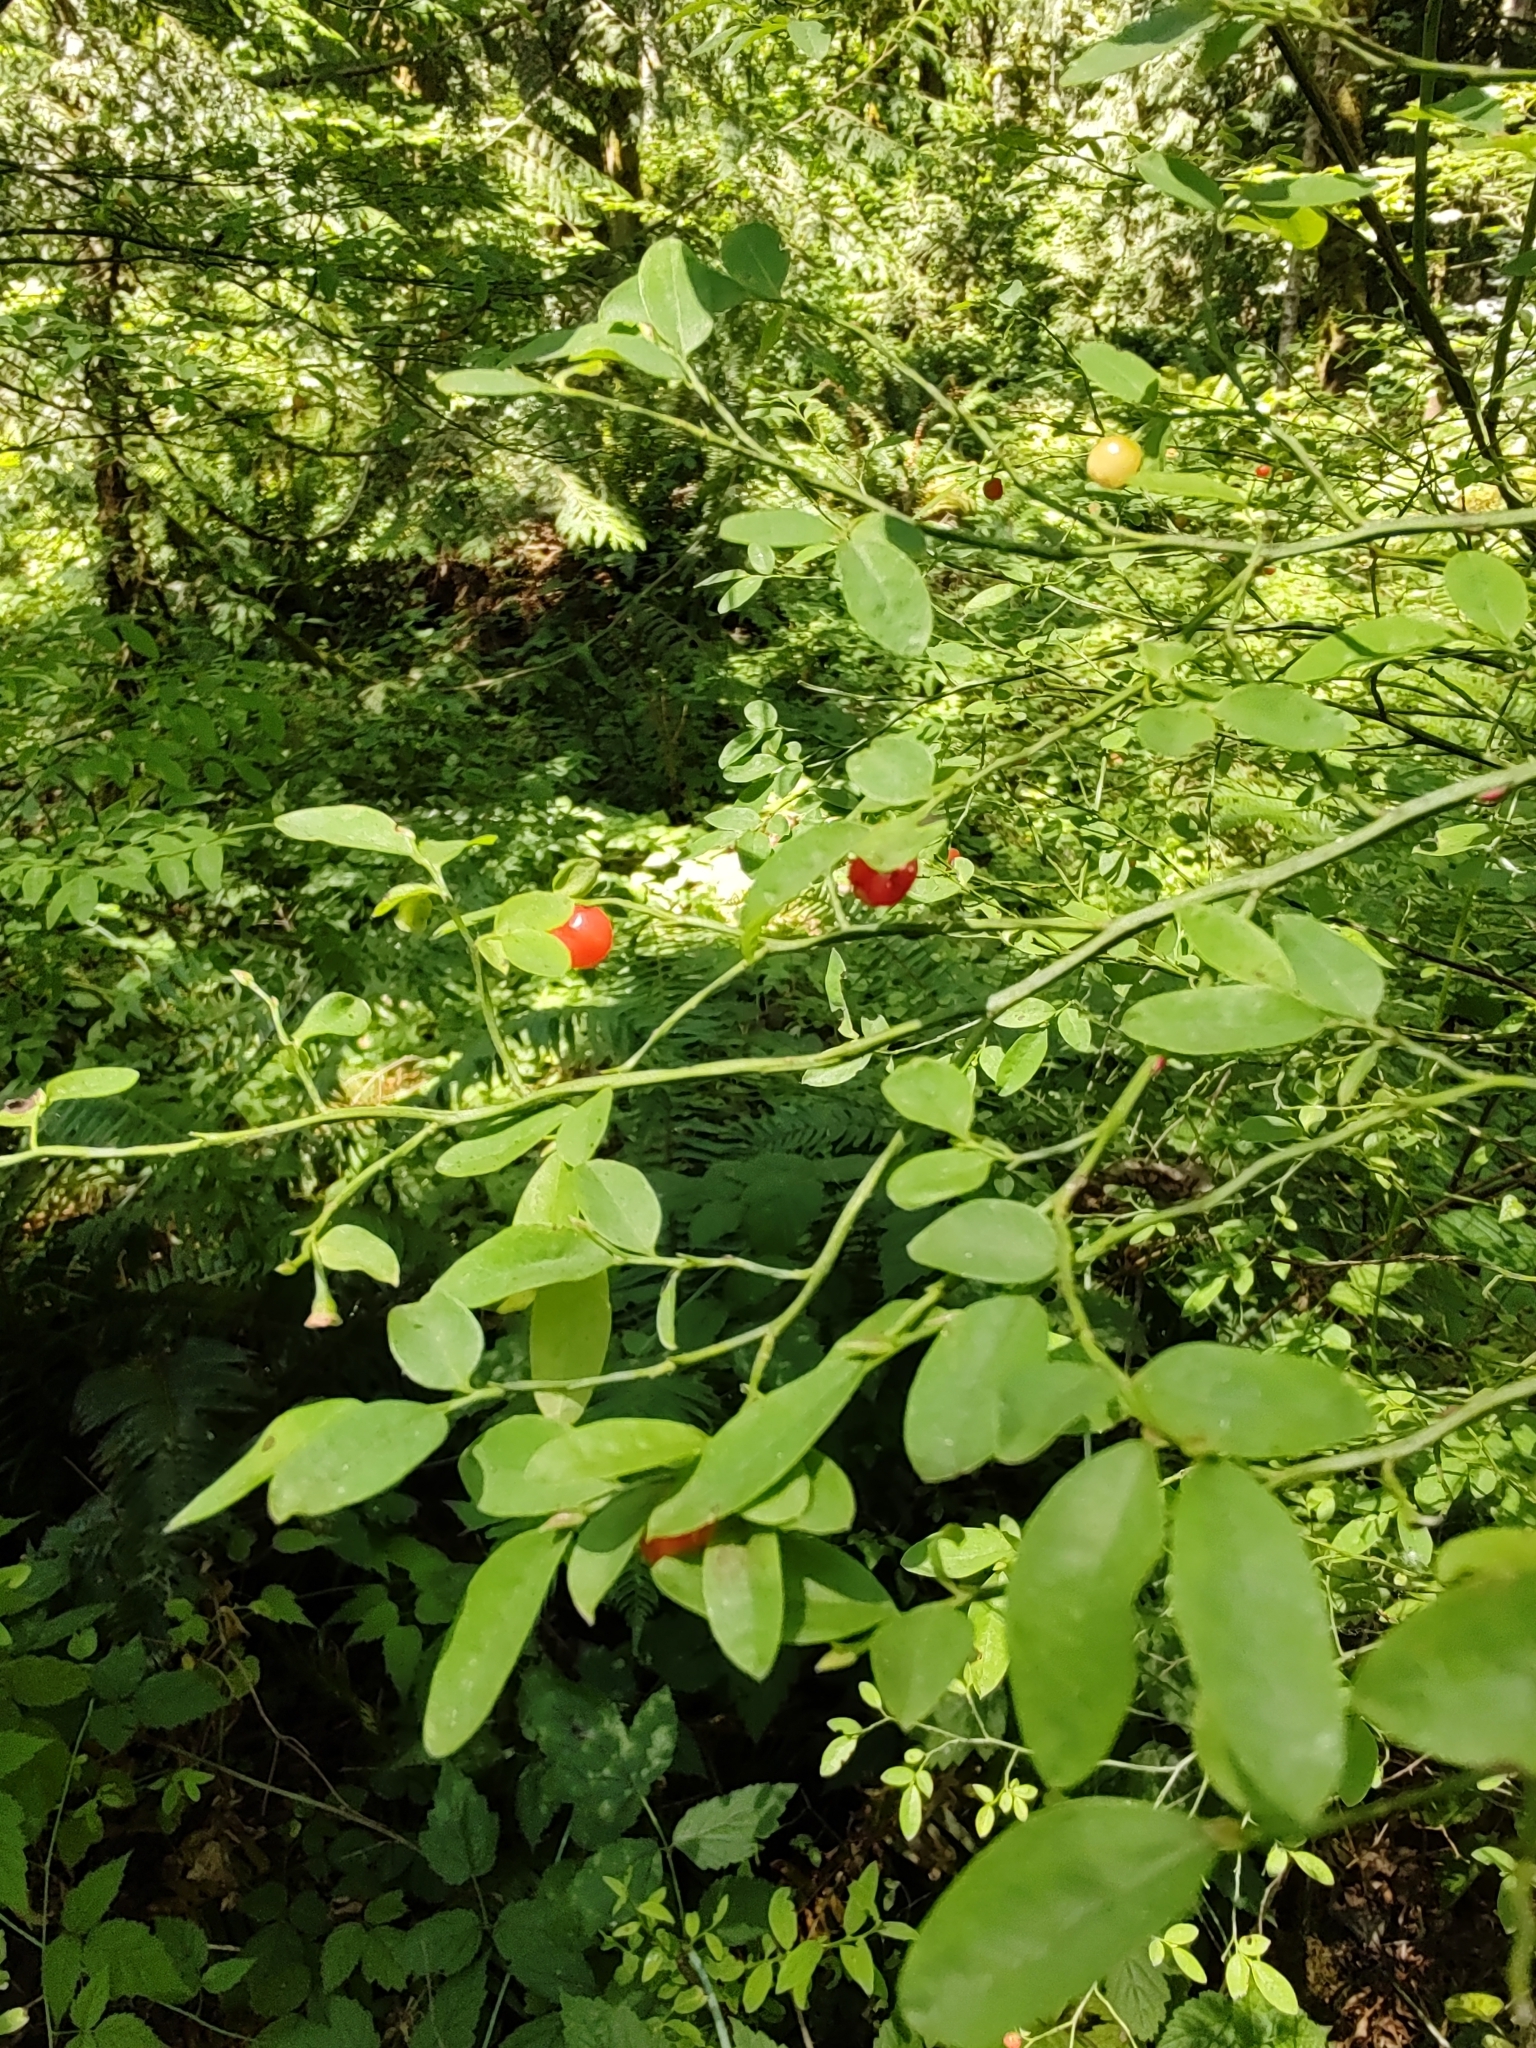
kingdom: Plantae
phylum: Tracheophyta
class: Magnoliopsida
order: Ericales
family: Ericaceae
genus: Vaccinium
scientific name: Vaccinium parvifolium
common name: Red-huckleberry
